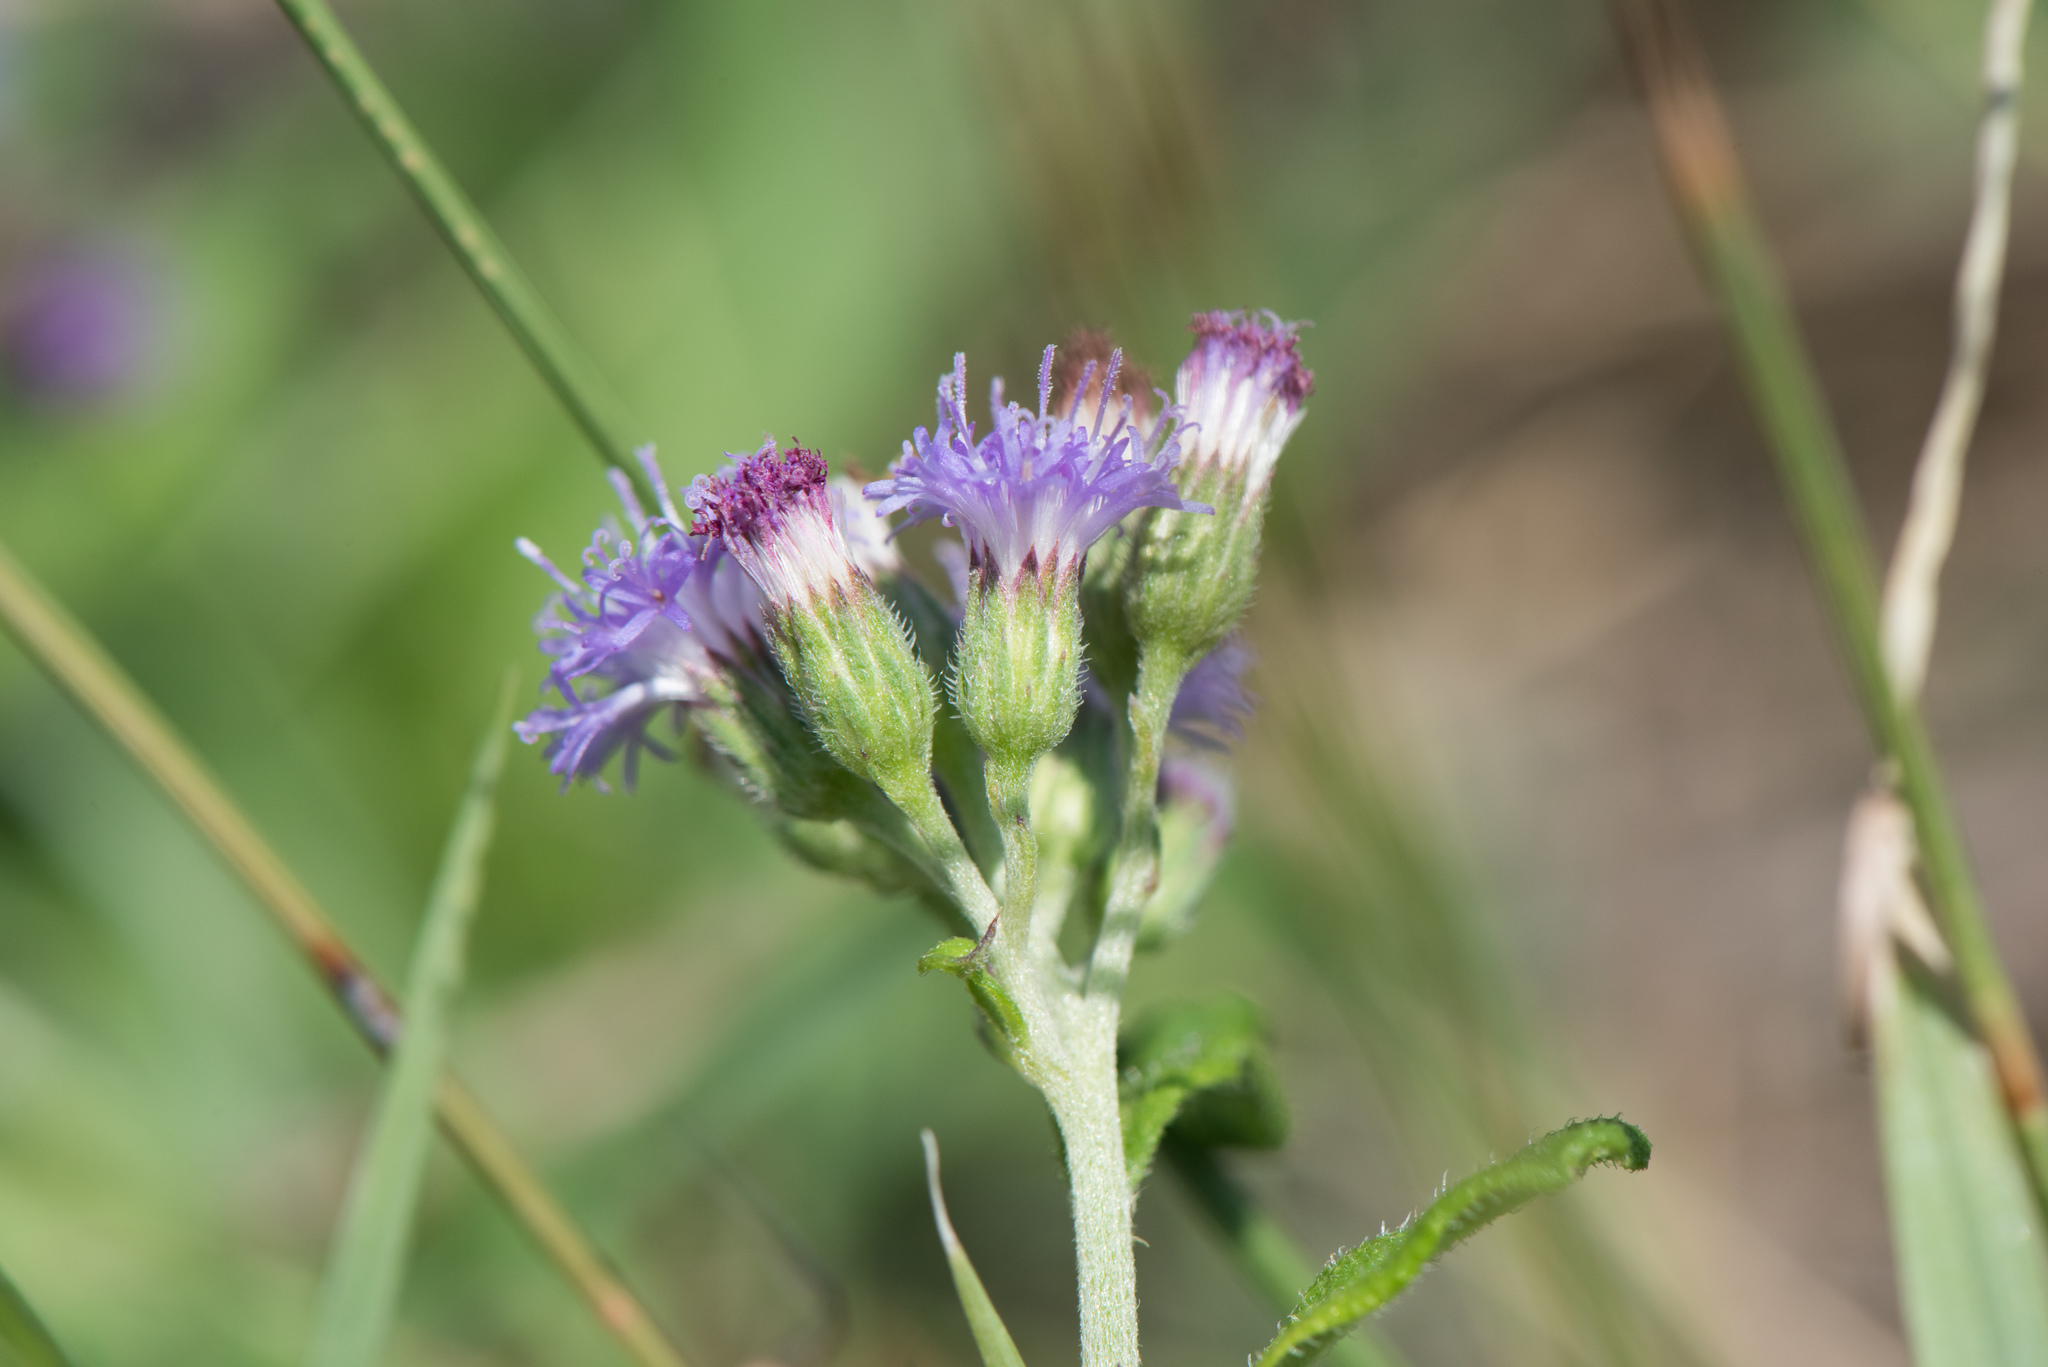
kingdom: Plantae
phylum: Tracheophyta
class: Magnoliopsida
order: Asterales
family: Asteraceae
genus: Cyanthillium
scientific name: Cyanthillium cinereum
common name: Little ironweed
